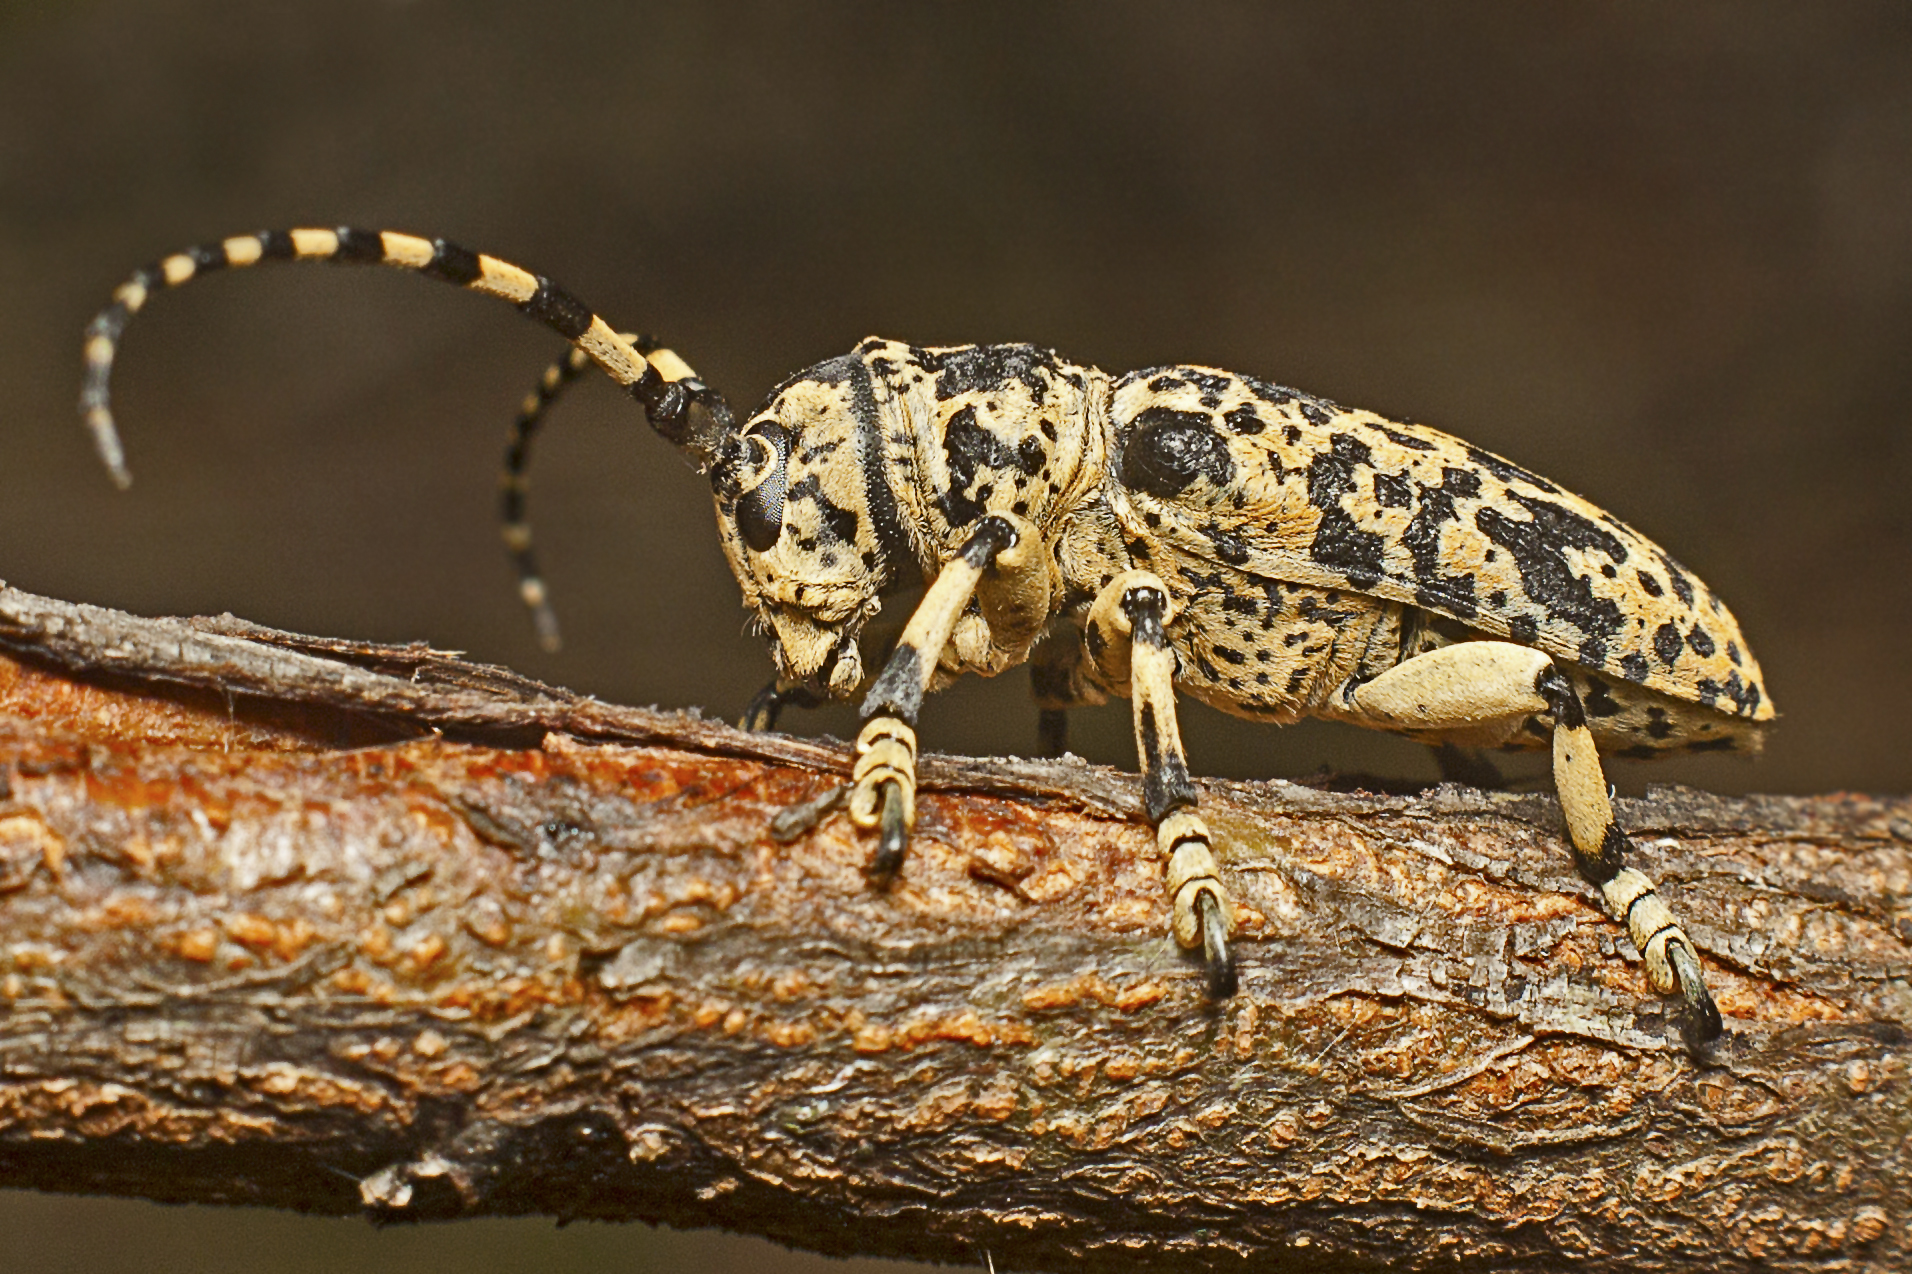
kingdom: Animalia
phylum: Arthropoda
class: Insecta
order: Coleoptera
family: Cerambycidae
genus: Rhytiphora
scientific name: Rhytiphora pardalis
